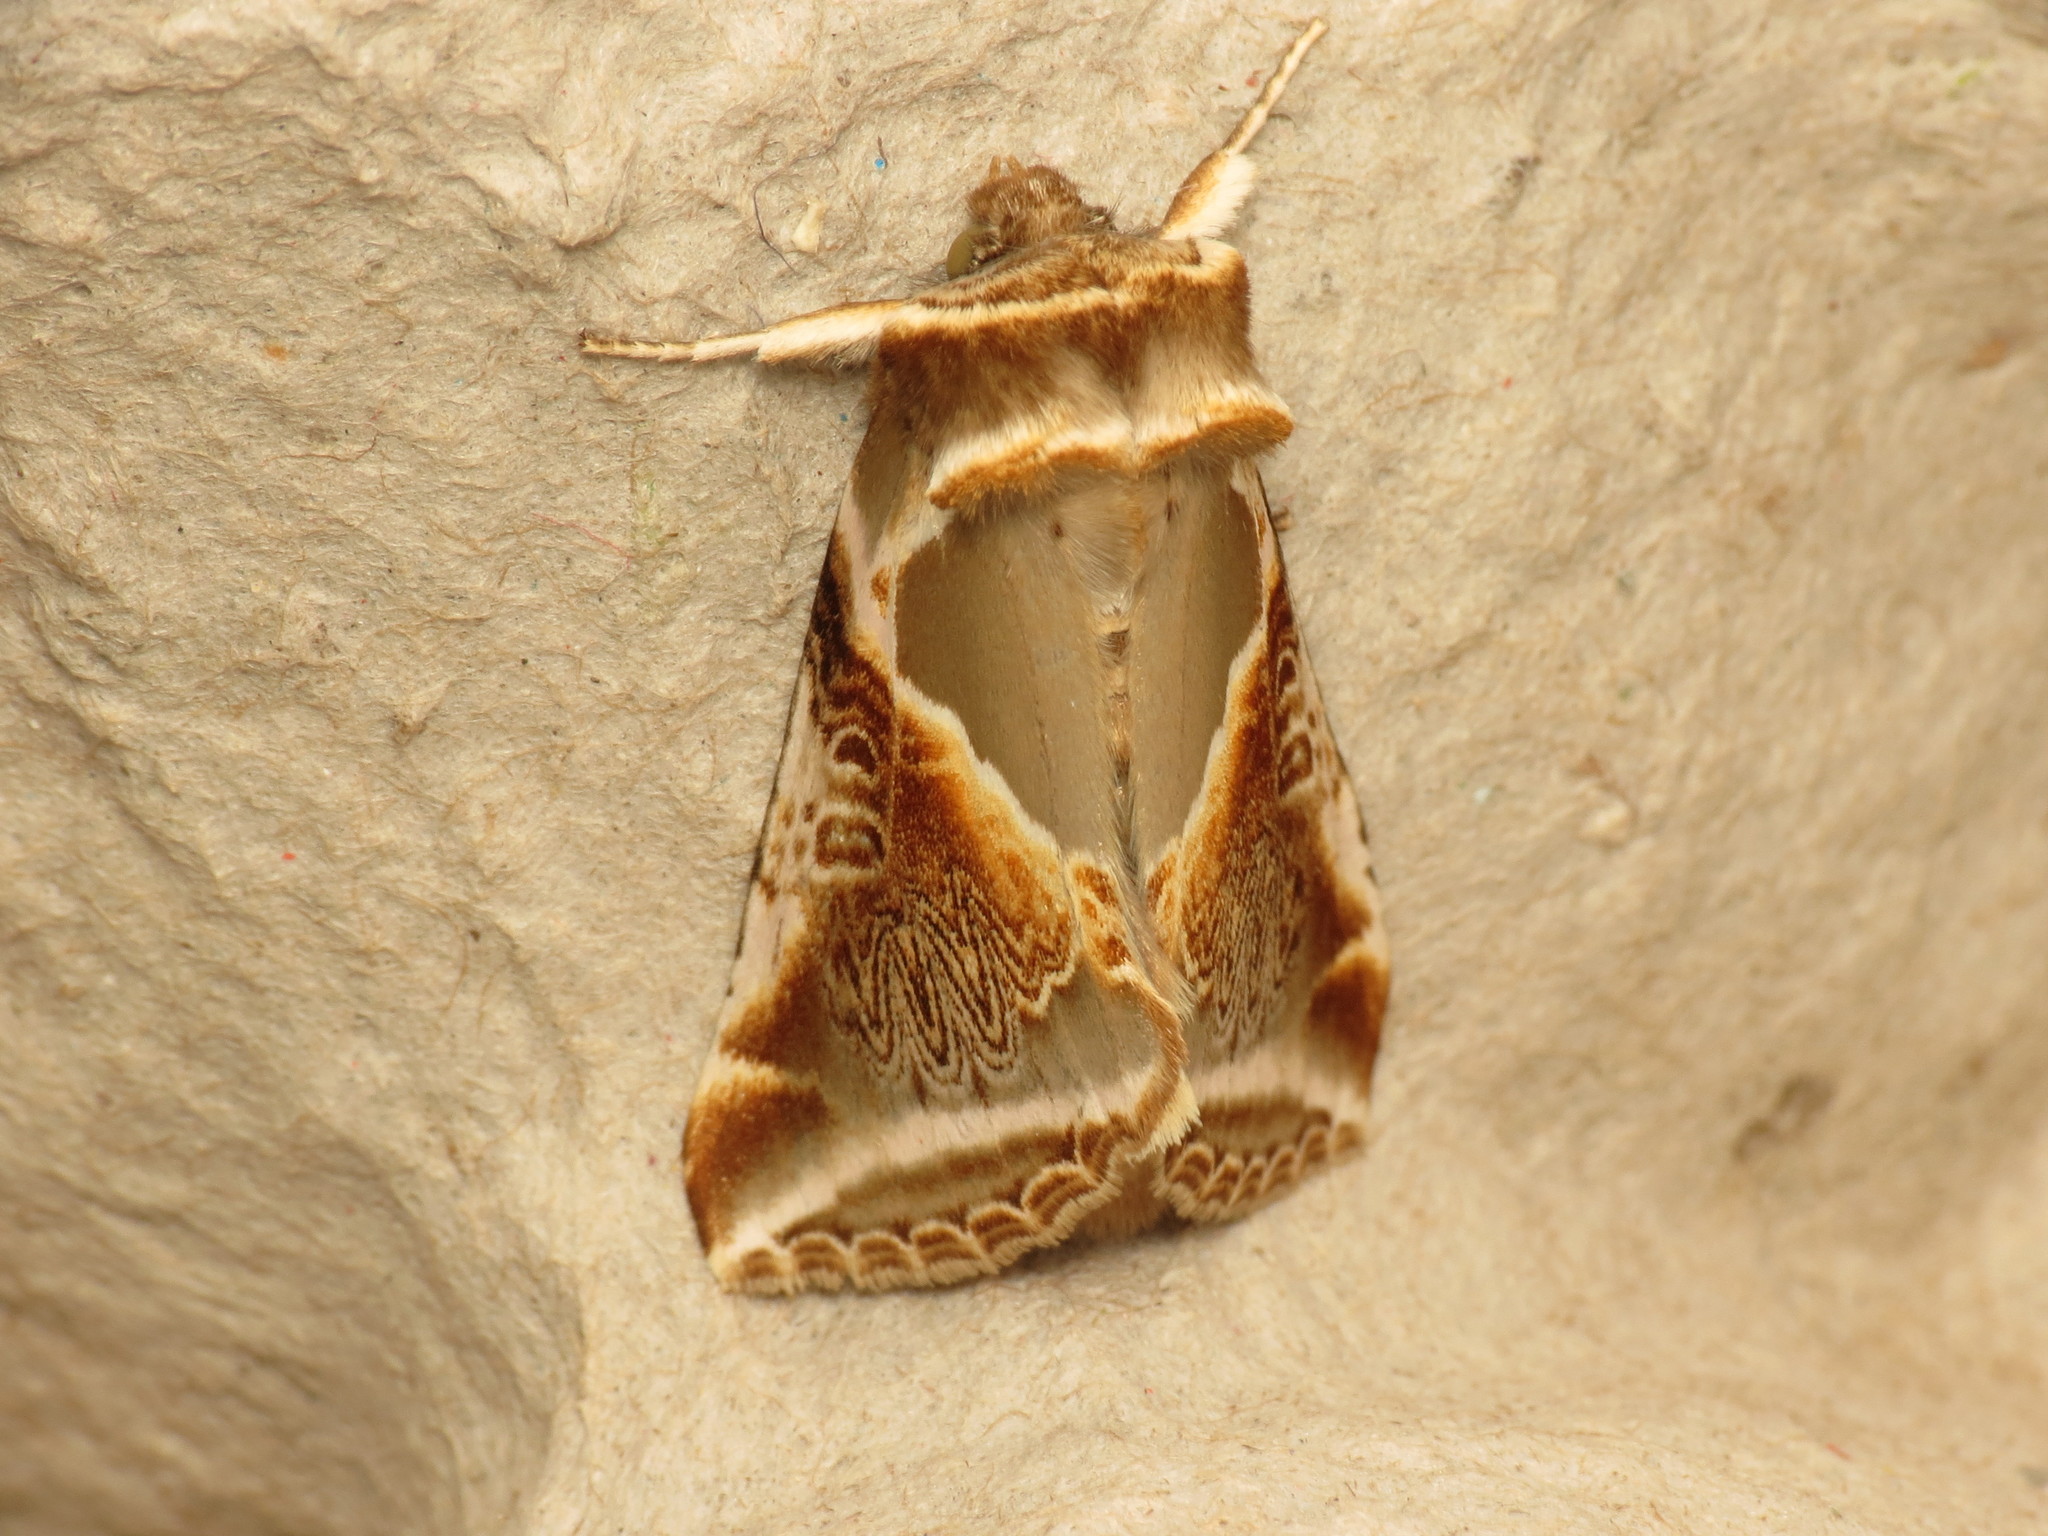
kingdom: Animalia
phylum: Arthropoda
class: Insecta
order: Lepidoptera
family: Drepanidae
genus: Habrosyne
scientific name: Habrosyne pyritoides
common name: Buff arches
